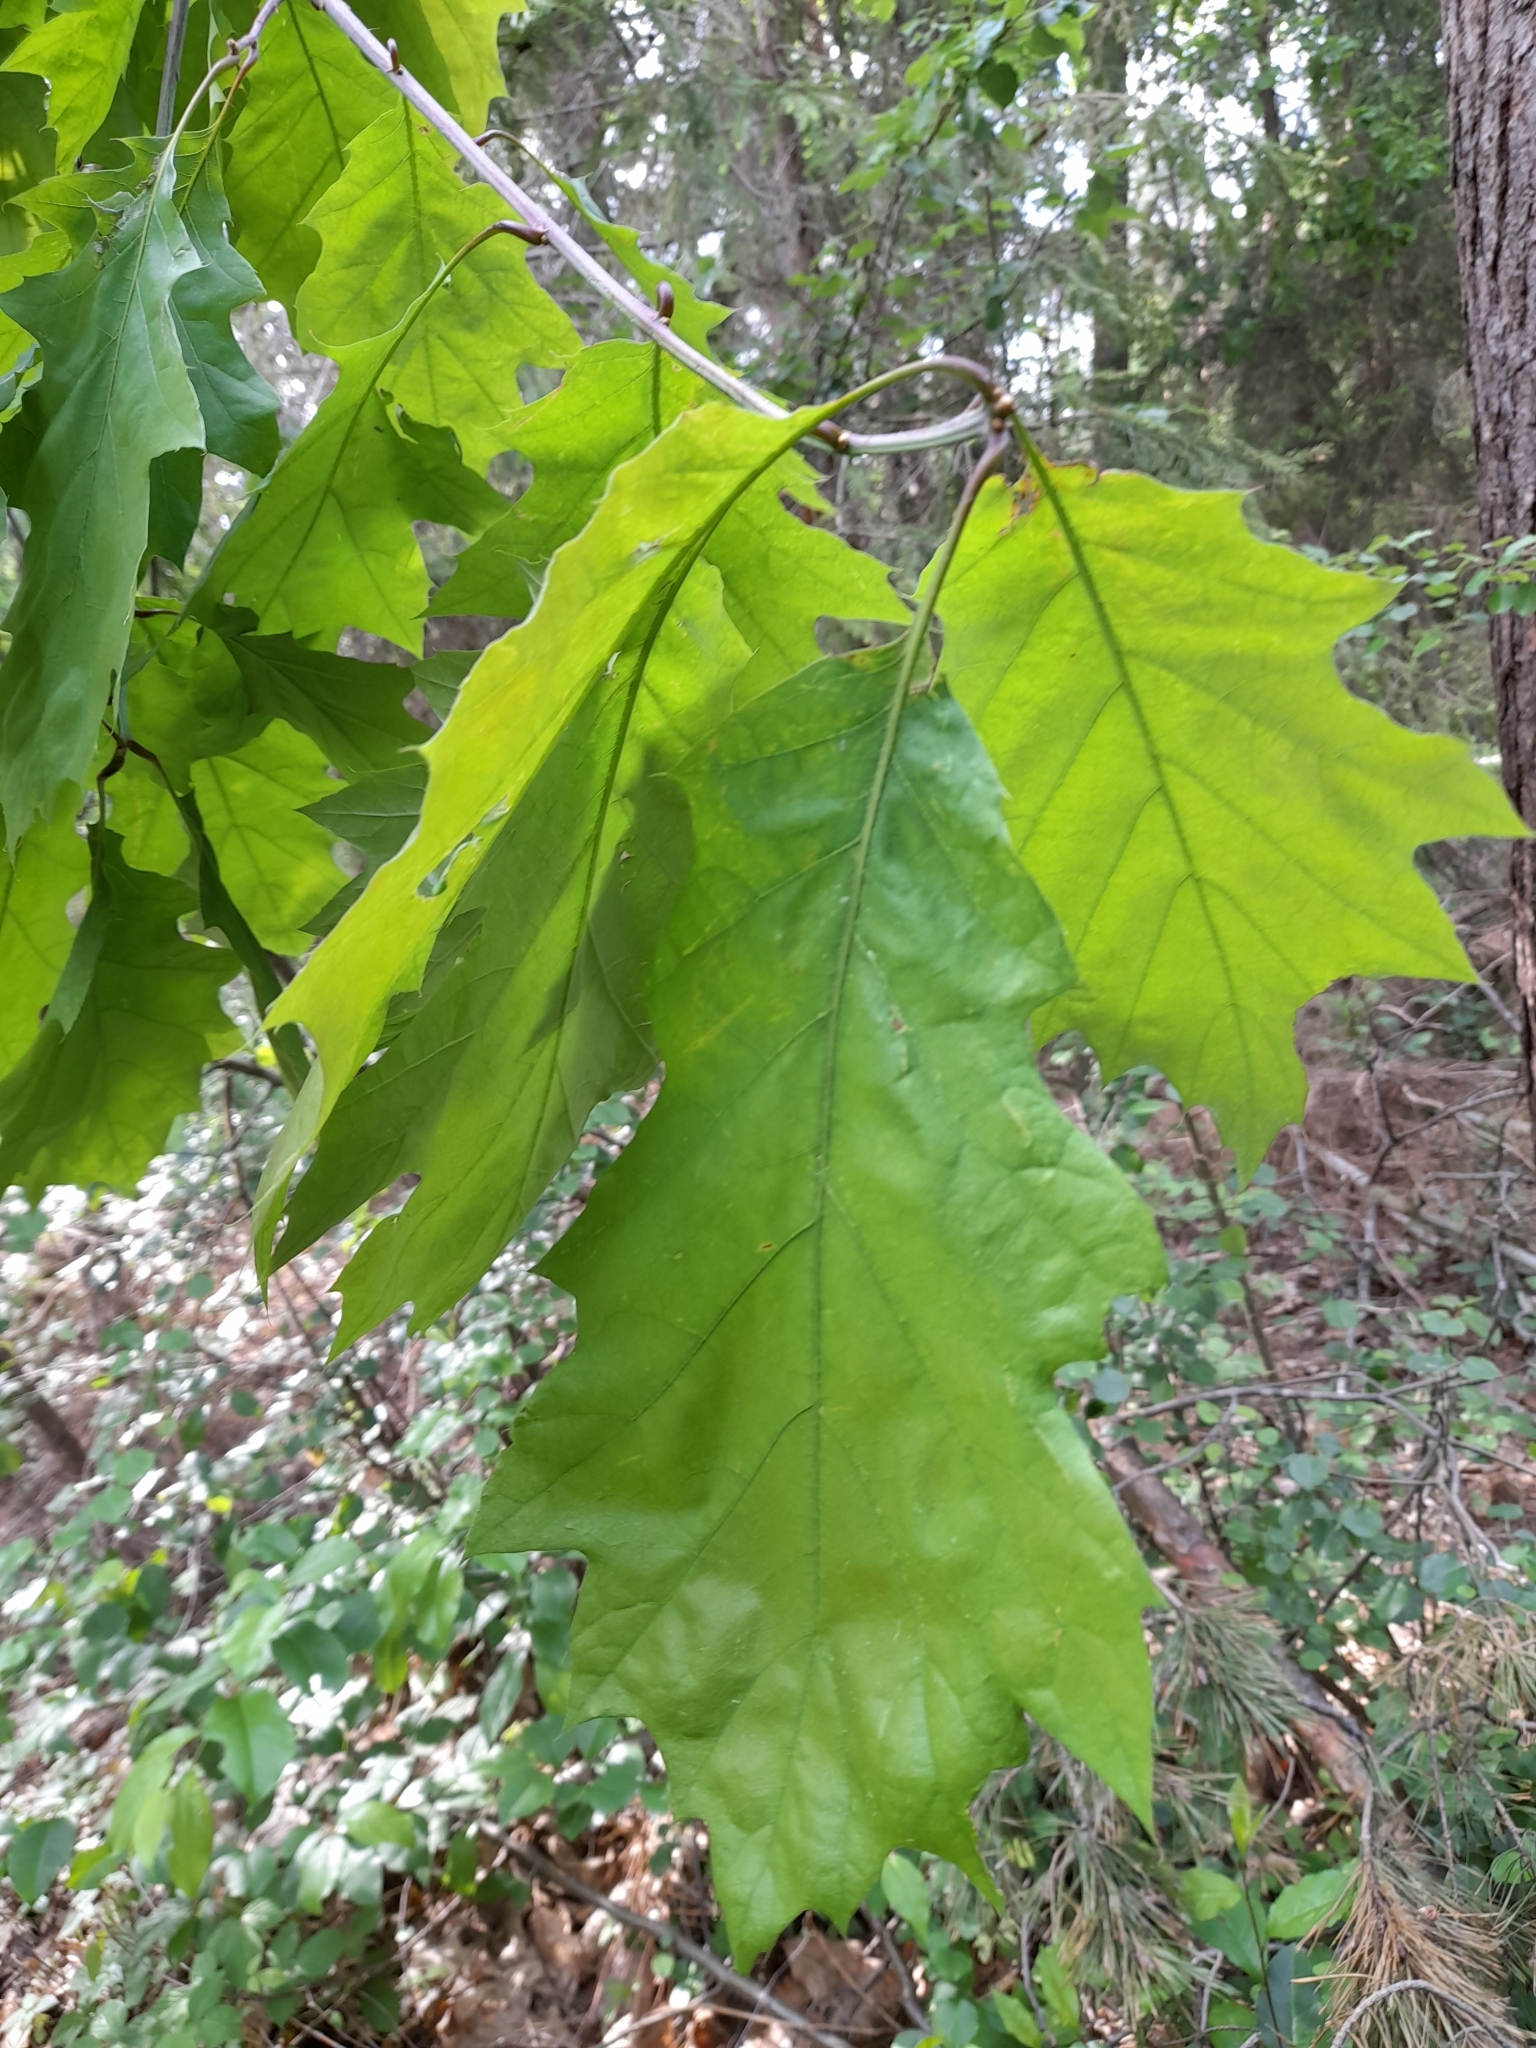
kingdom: Plantae
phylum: Tracheophyta
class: Magnoliopsida
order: Fagales
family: Fagaceae
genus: Quercus
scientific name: Quercus rubra
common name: Red oak
